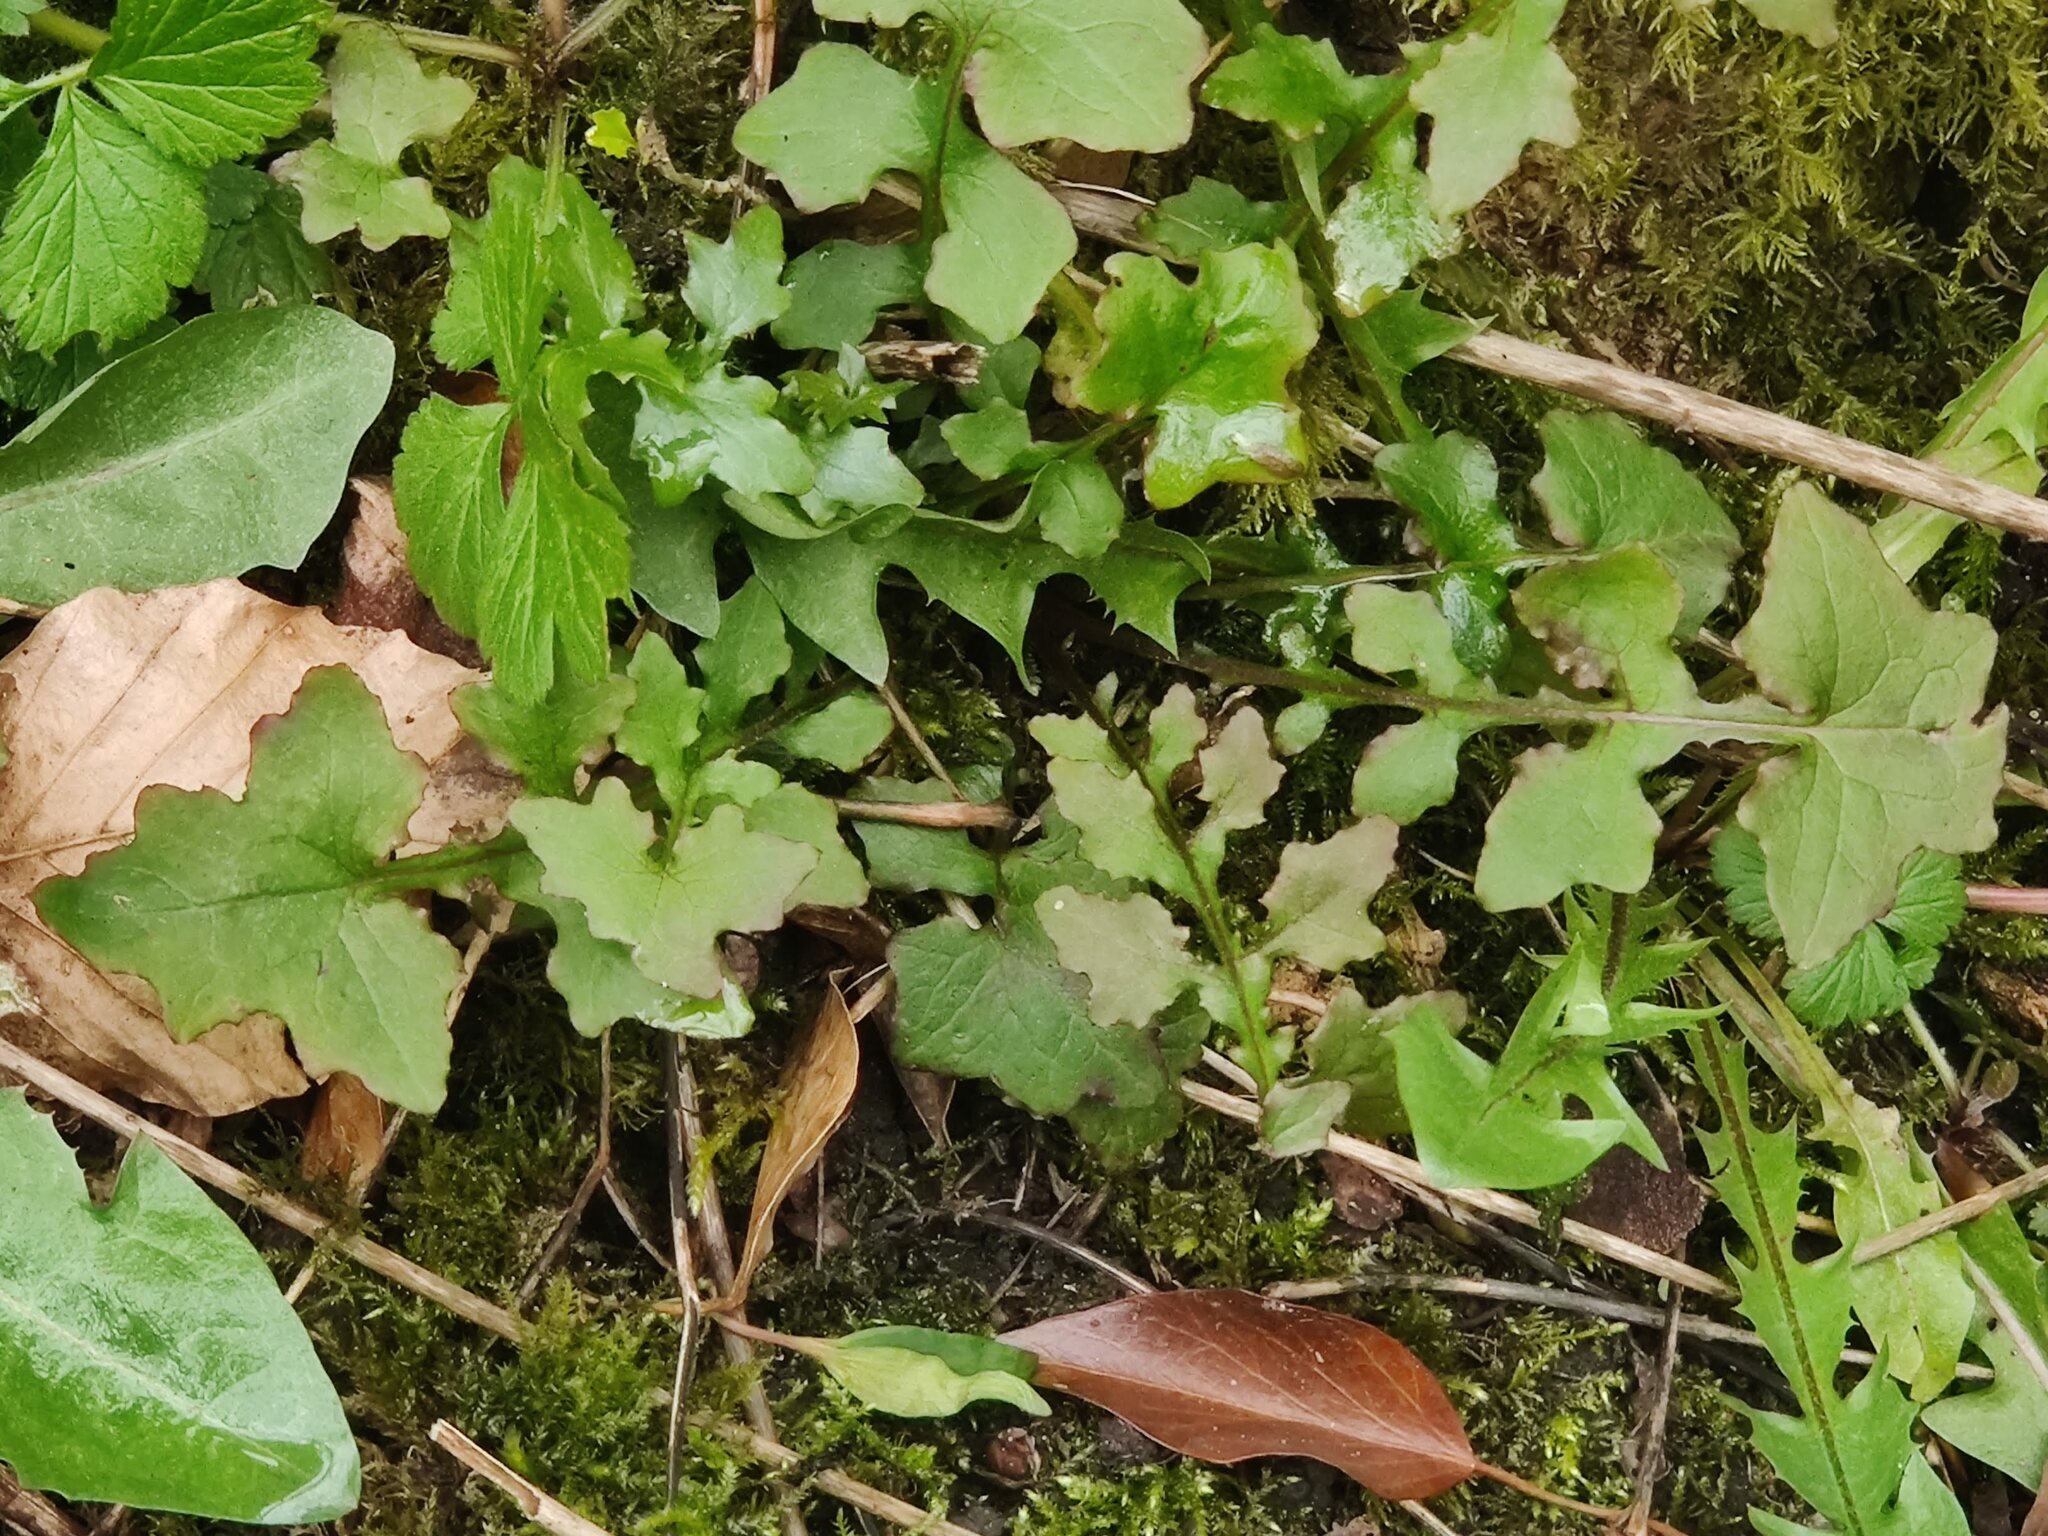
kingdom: Plantae
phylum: Tracheophyta
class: Magnoliopsida
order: Asterales
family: Asteraceae
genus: Lapsana
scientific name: Lapsana communis
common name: Nipplewort
